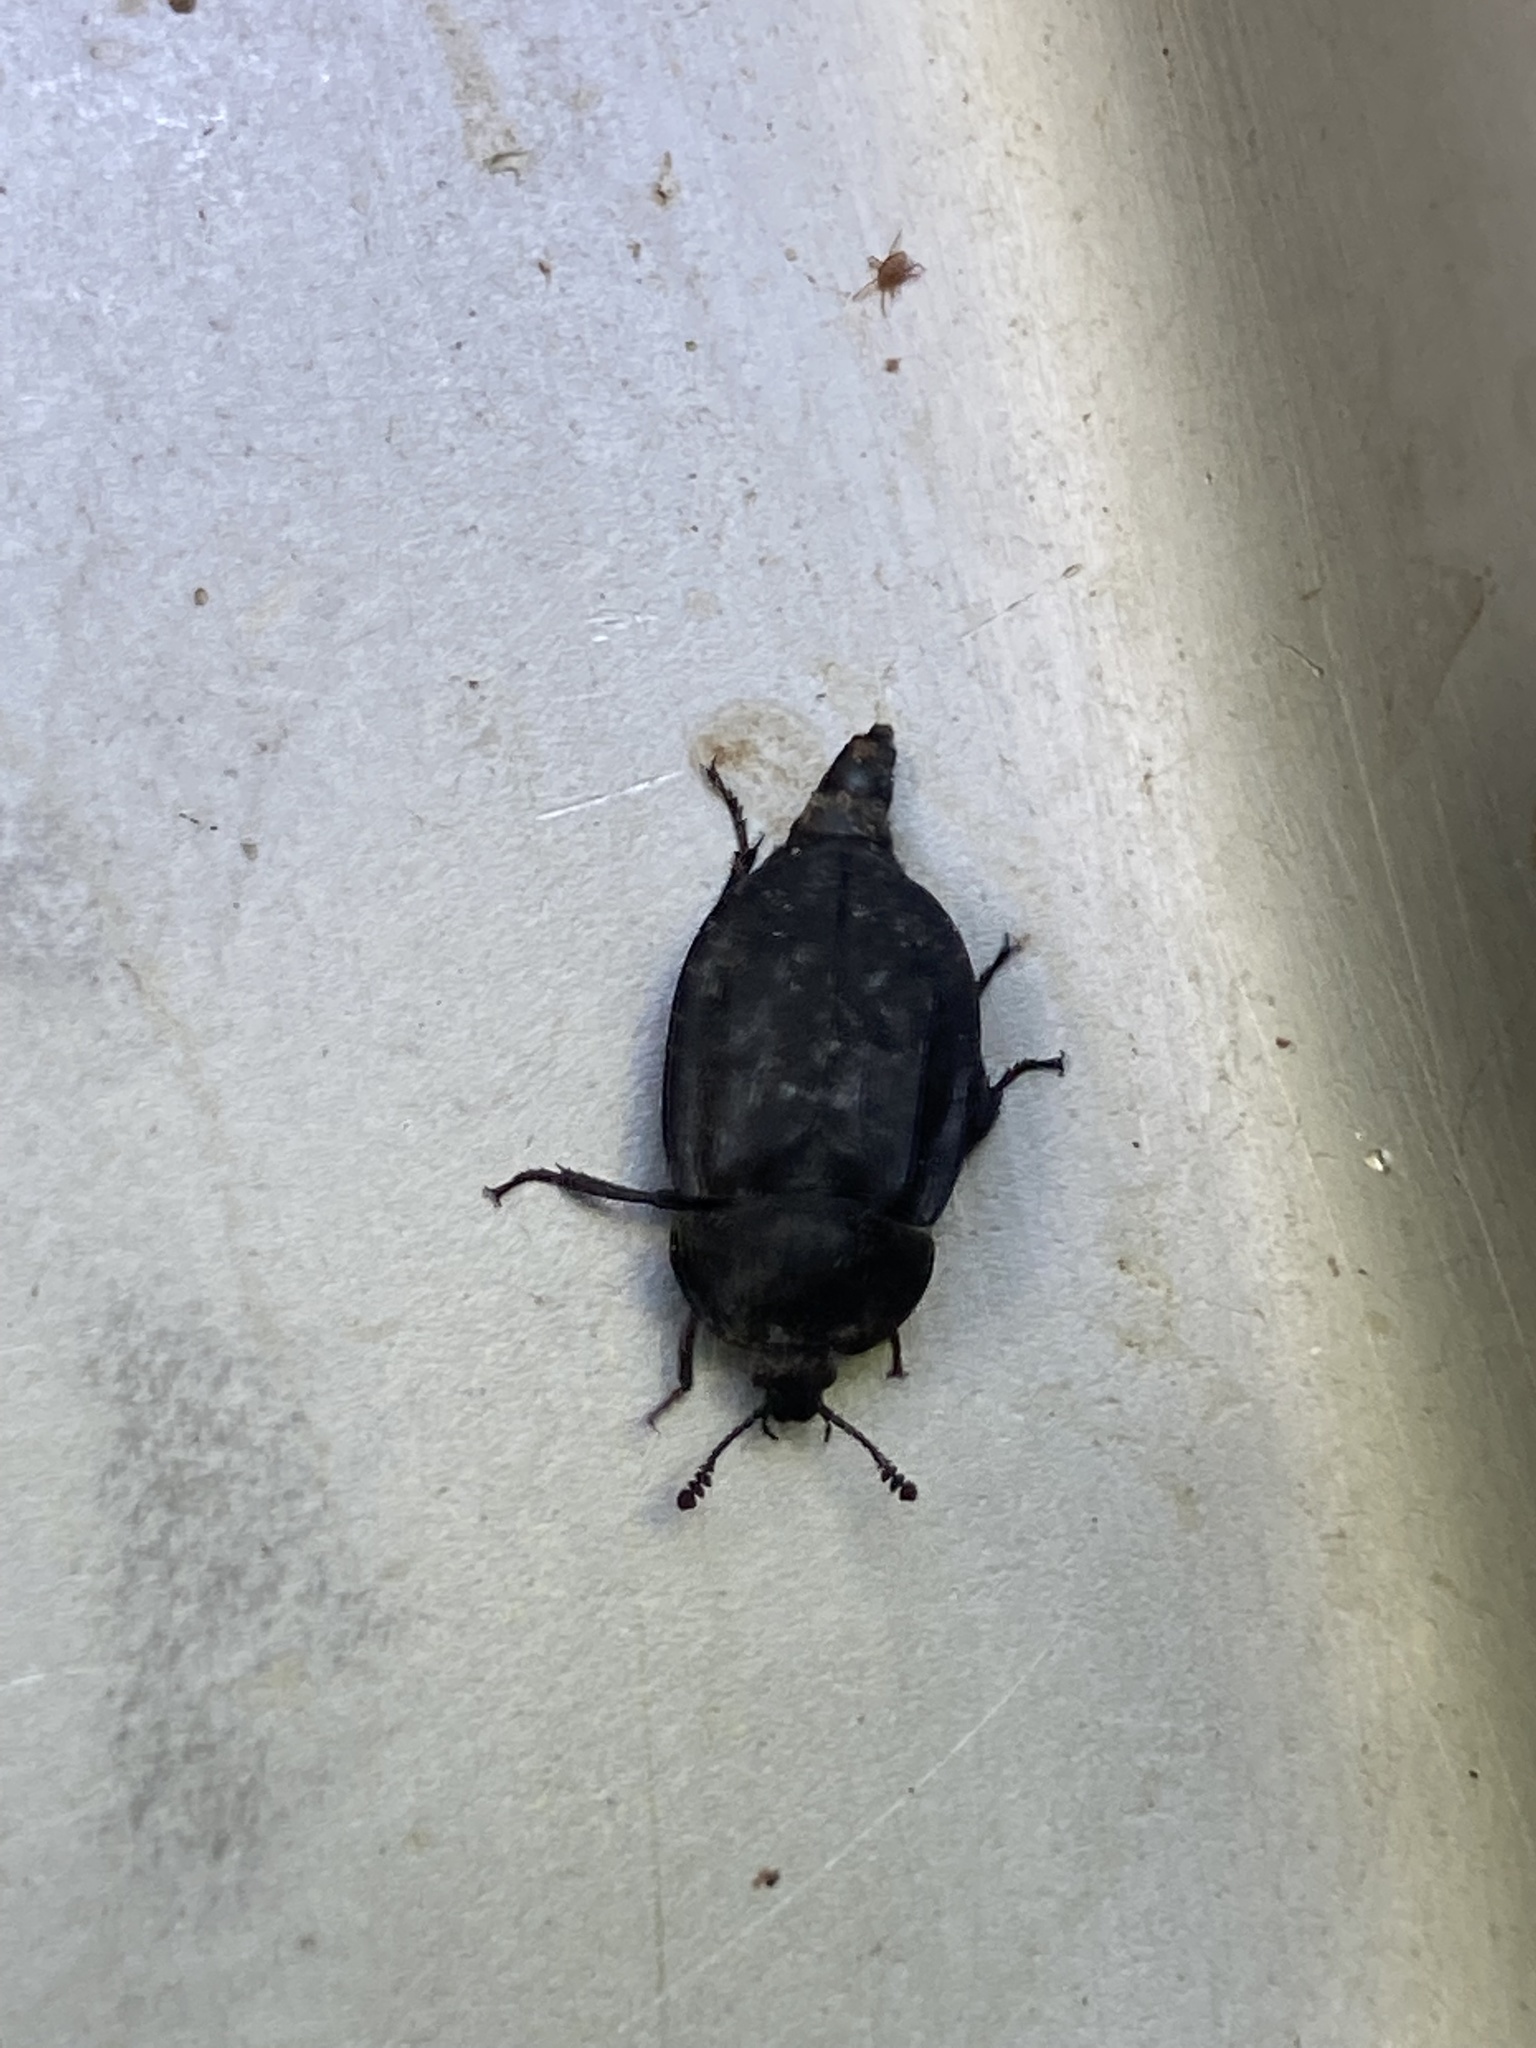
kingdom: Animalia
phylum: Arthropoda
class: Insecta
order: Coleoptera
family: Staphylinidae
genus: Oiceoptoma
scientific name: Oiceoptoma inaequale
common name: Ridged carrion beetle
